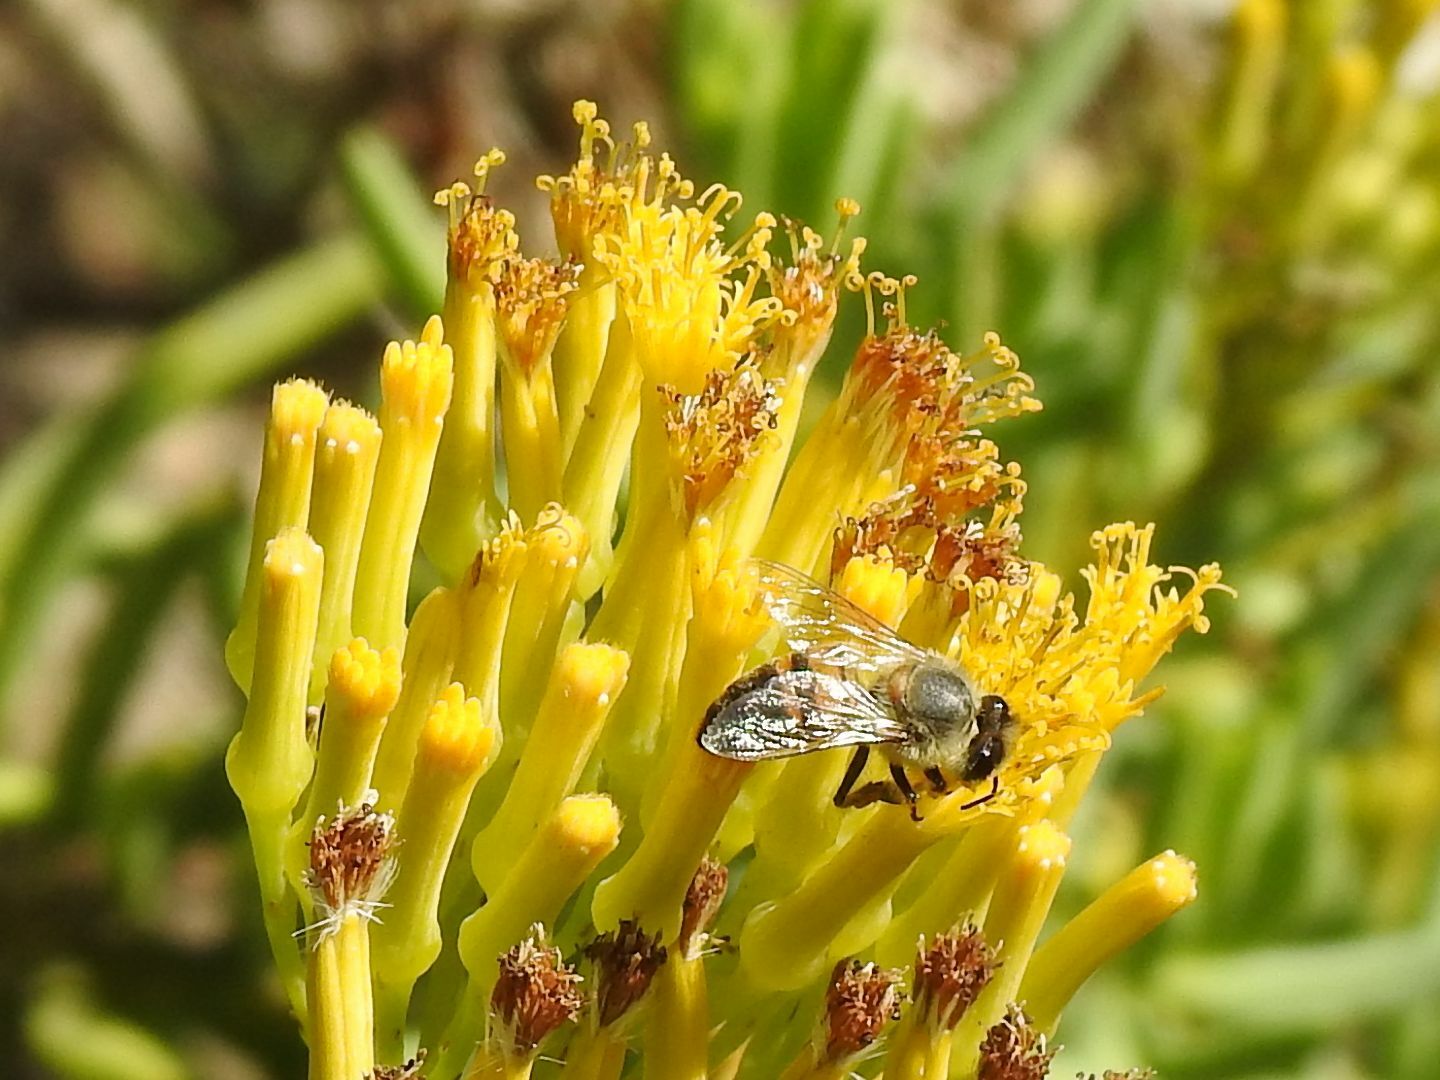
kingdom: Animalia
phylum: Arthropoda
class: Insecta
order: Hymenoptera
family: Apidae
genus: Apis
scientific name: Apis mellifera
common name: Honey bee
